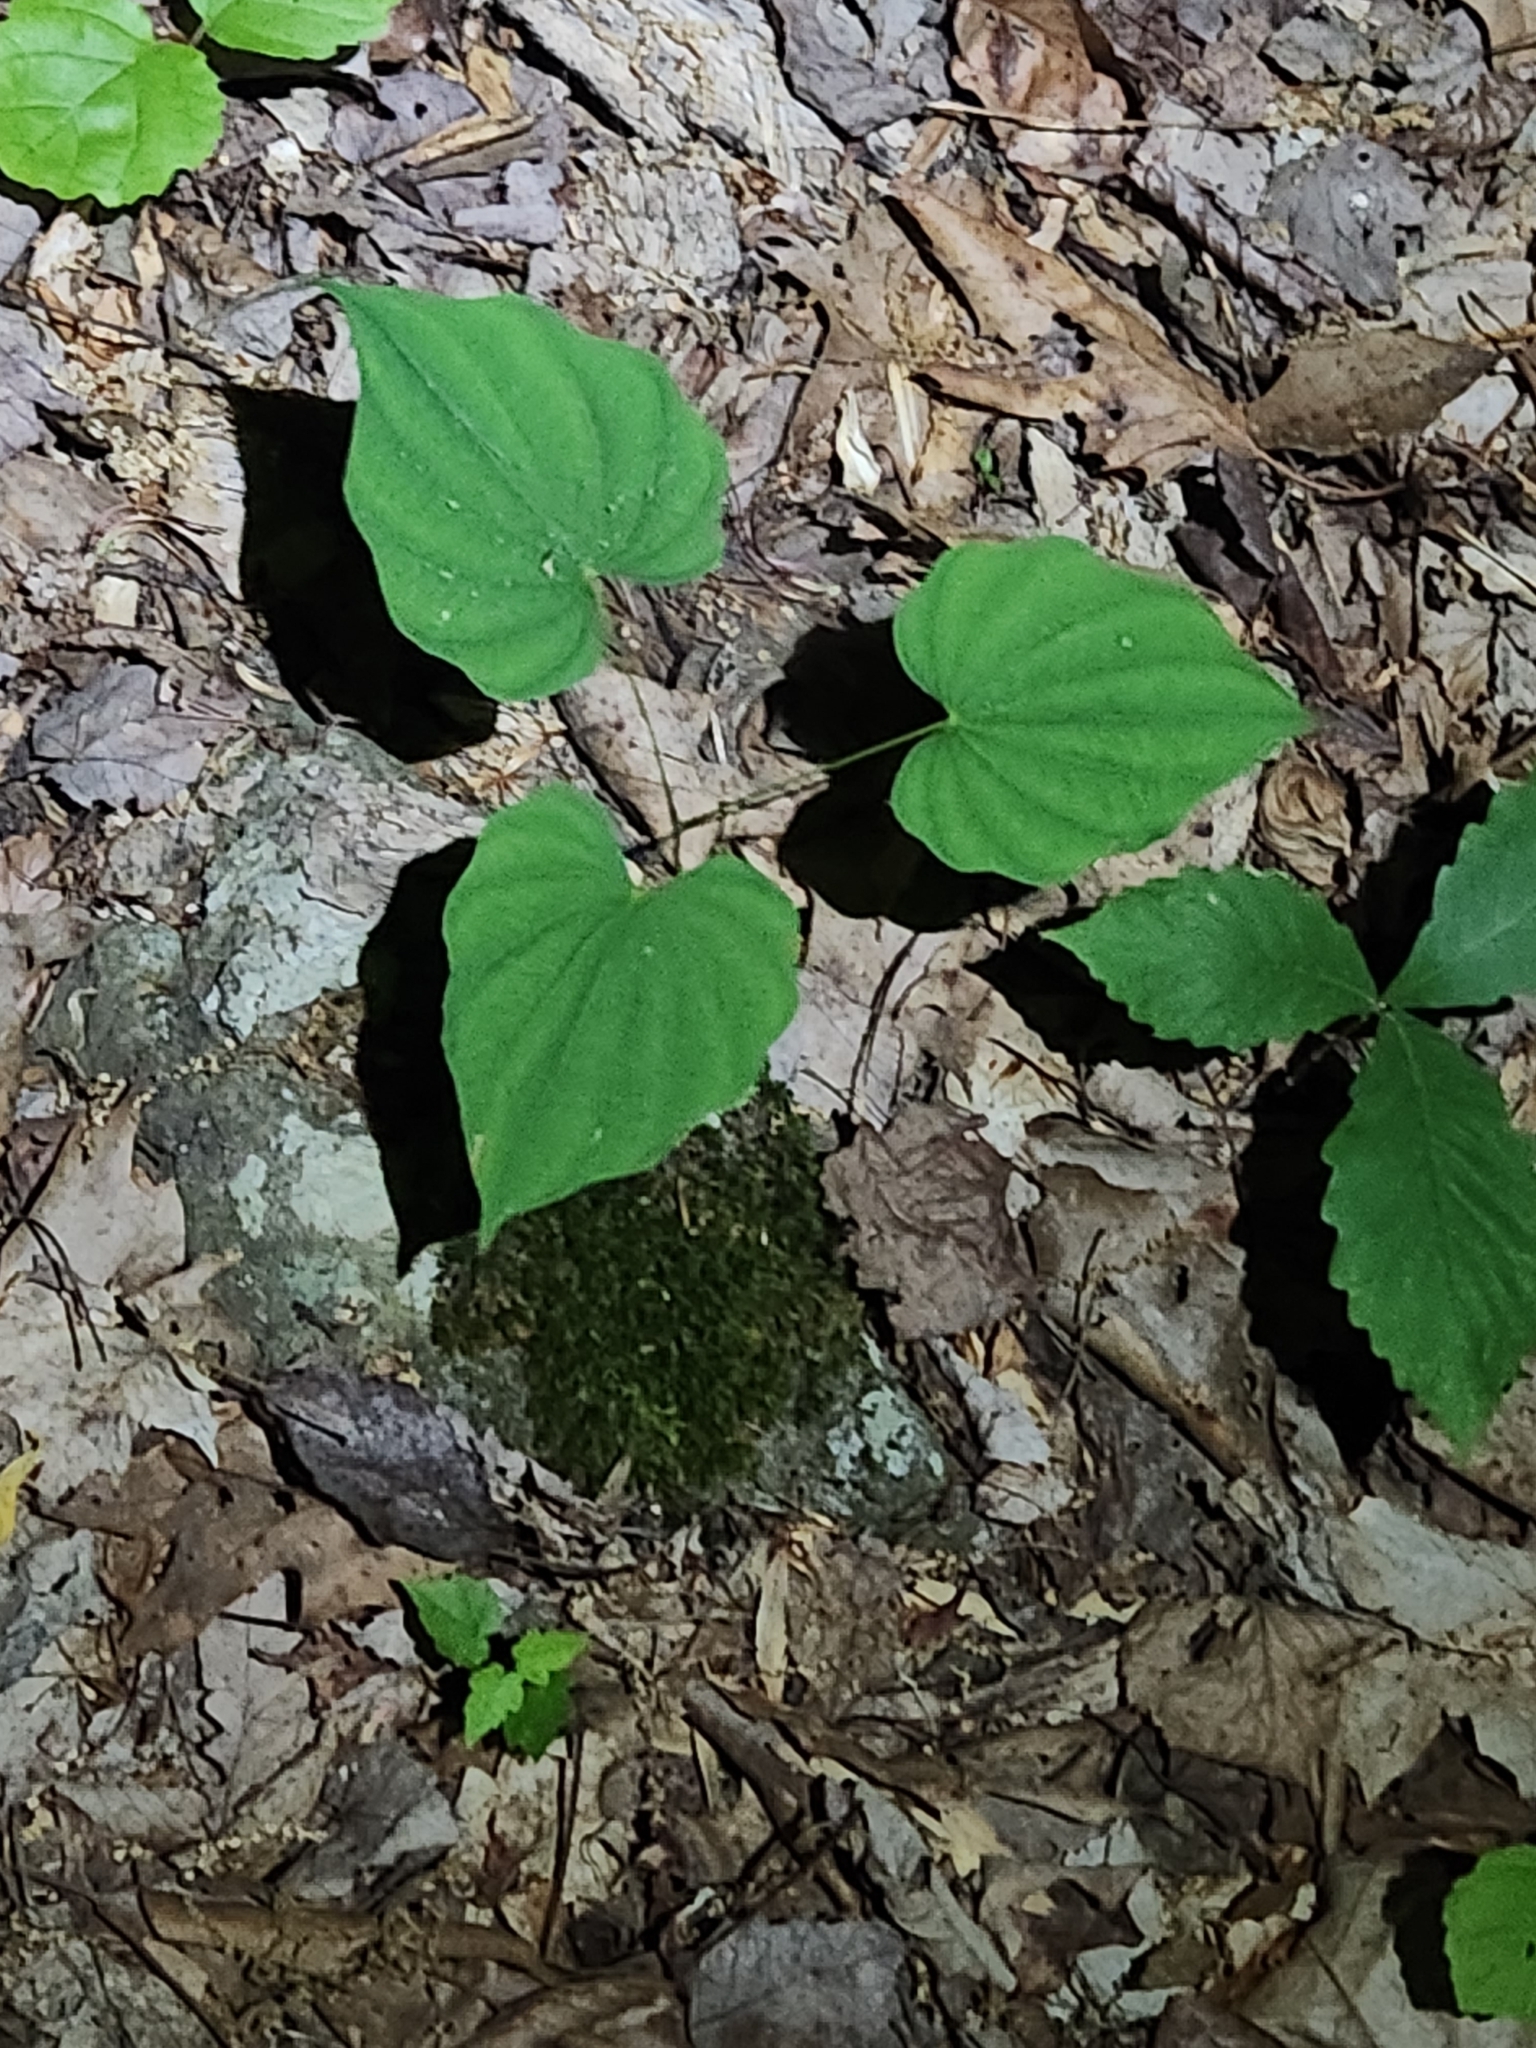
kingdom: Plantae
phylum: Tracheophyta
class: Liliopsida
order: Dioscoreales
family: Dioscoreaceae
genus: Dioscorea
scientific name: Dioscorea villosa
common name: Wild yam
